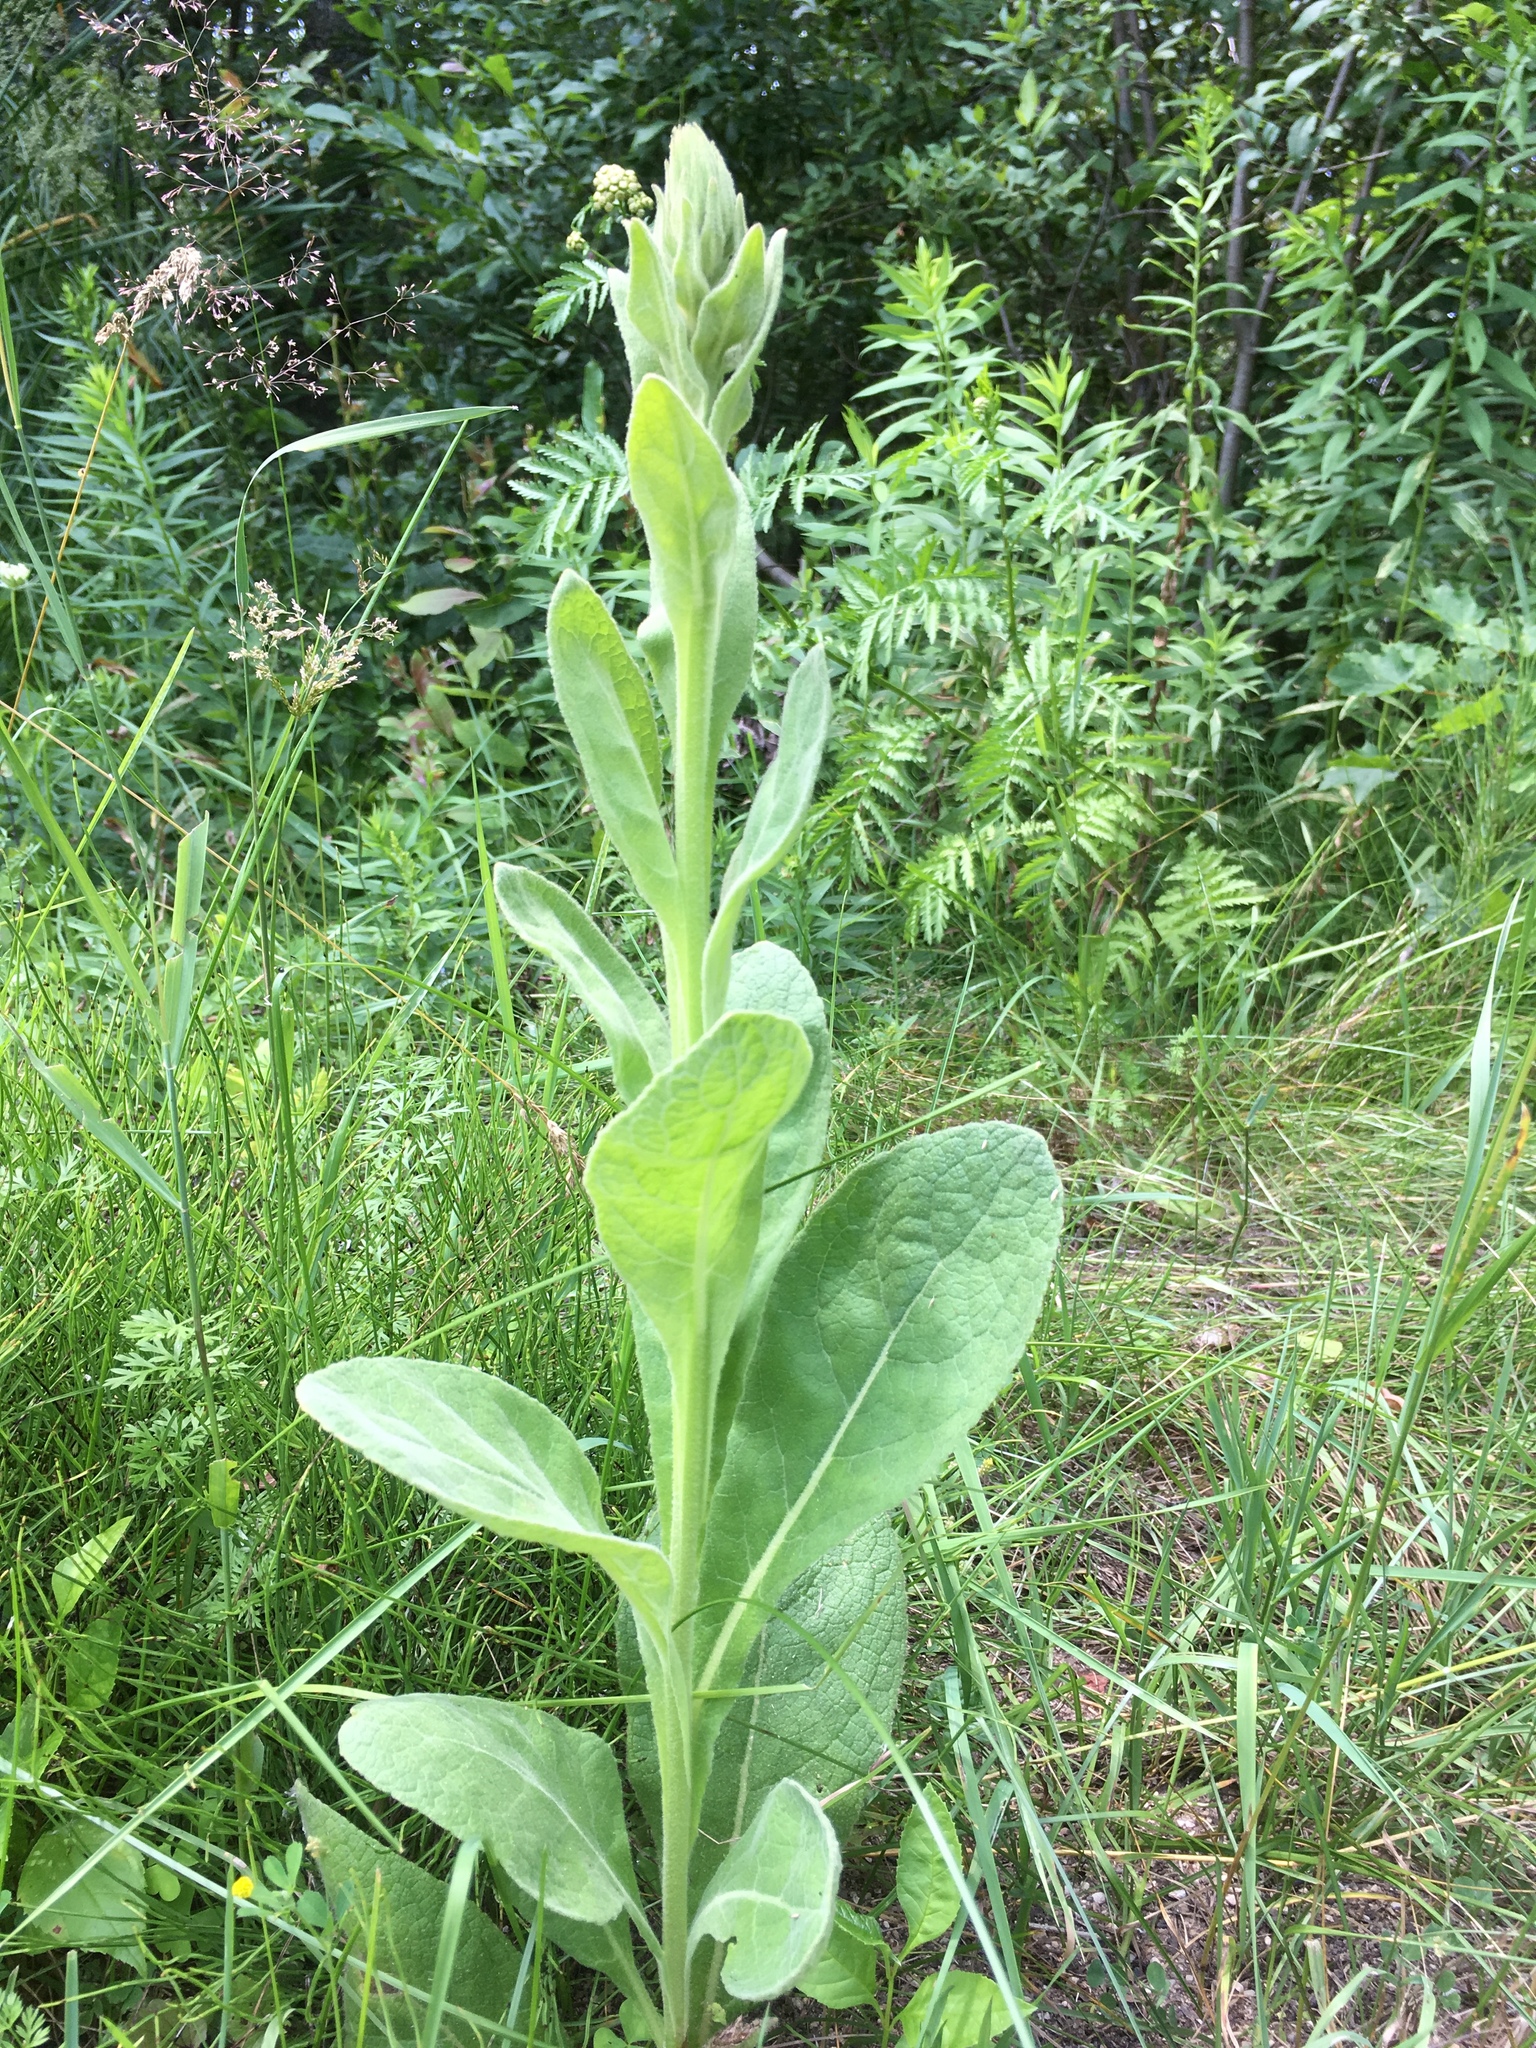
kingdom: Plantae
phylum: Tracheophyta
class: Magnoliopsida
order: Lamiales
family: Scrophulariaceae
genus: Verbascum
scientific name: Verbascum thapsus
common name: Common mullein
